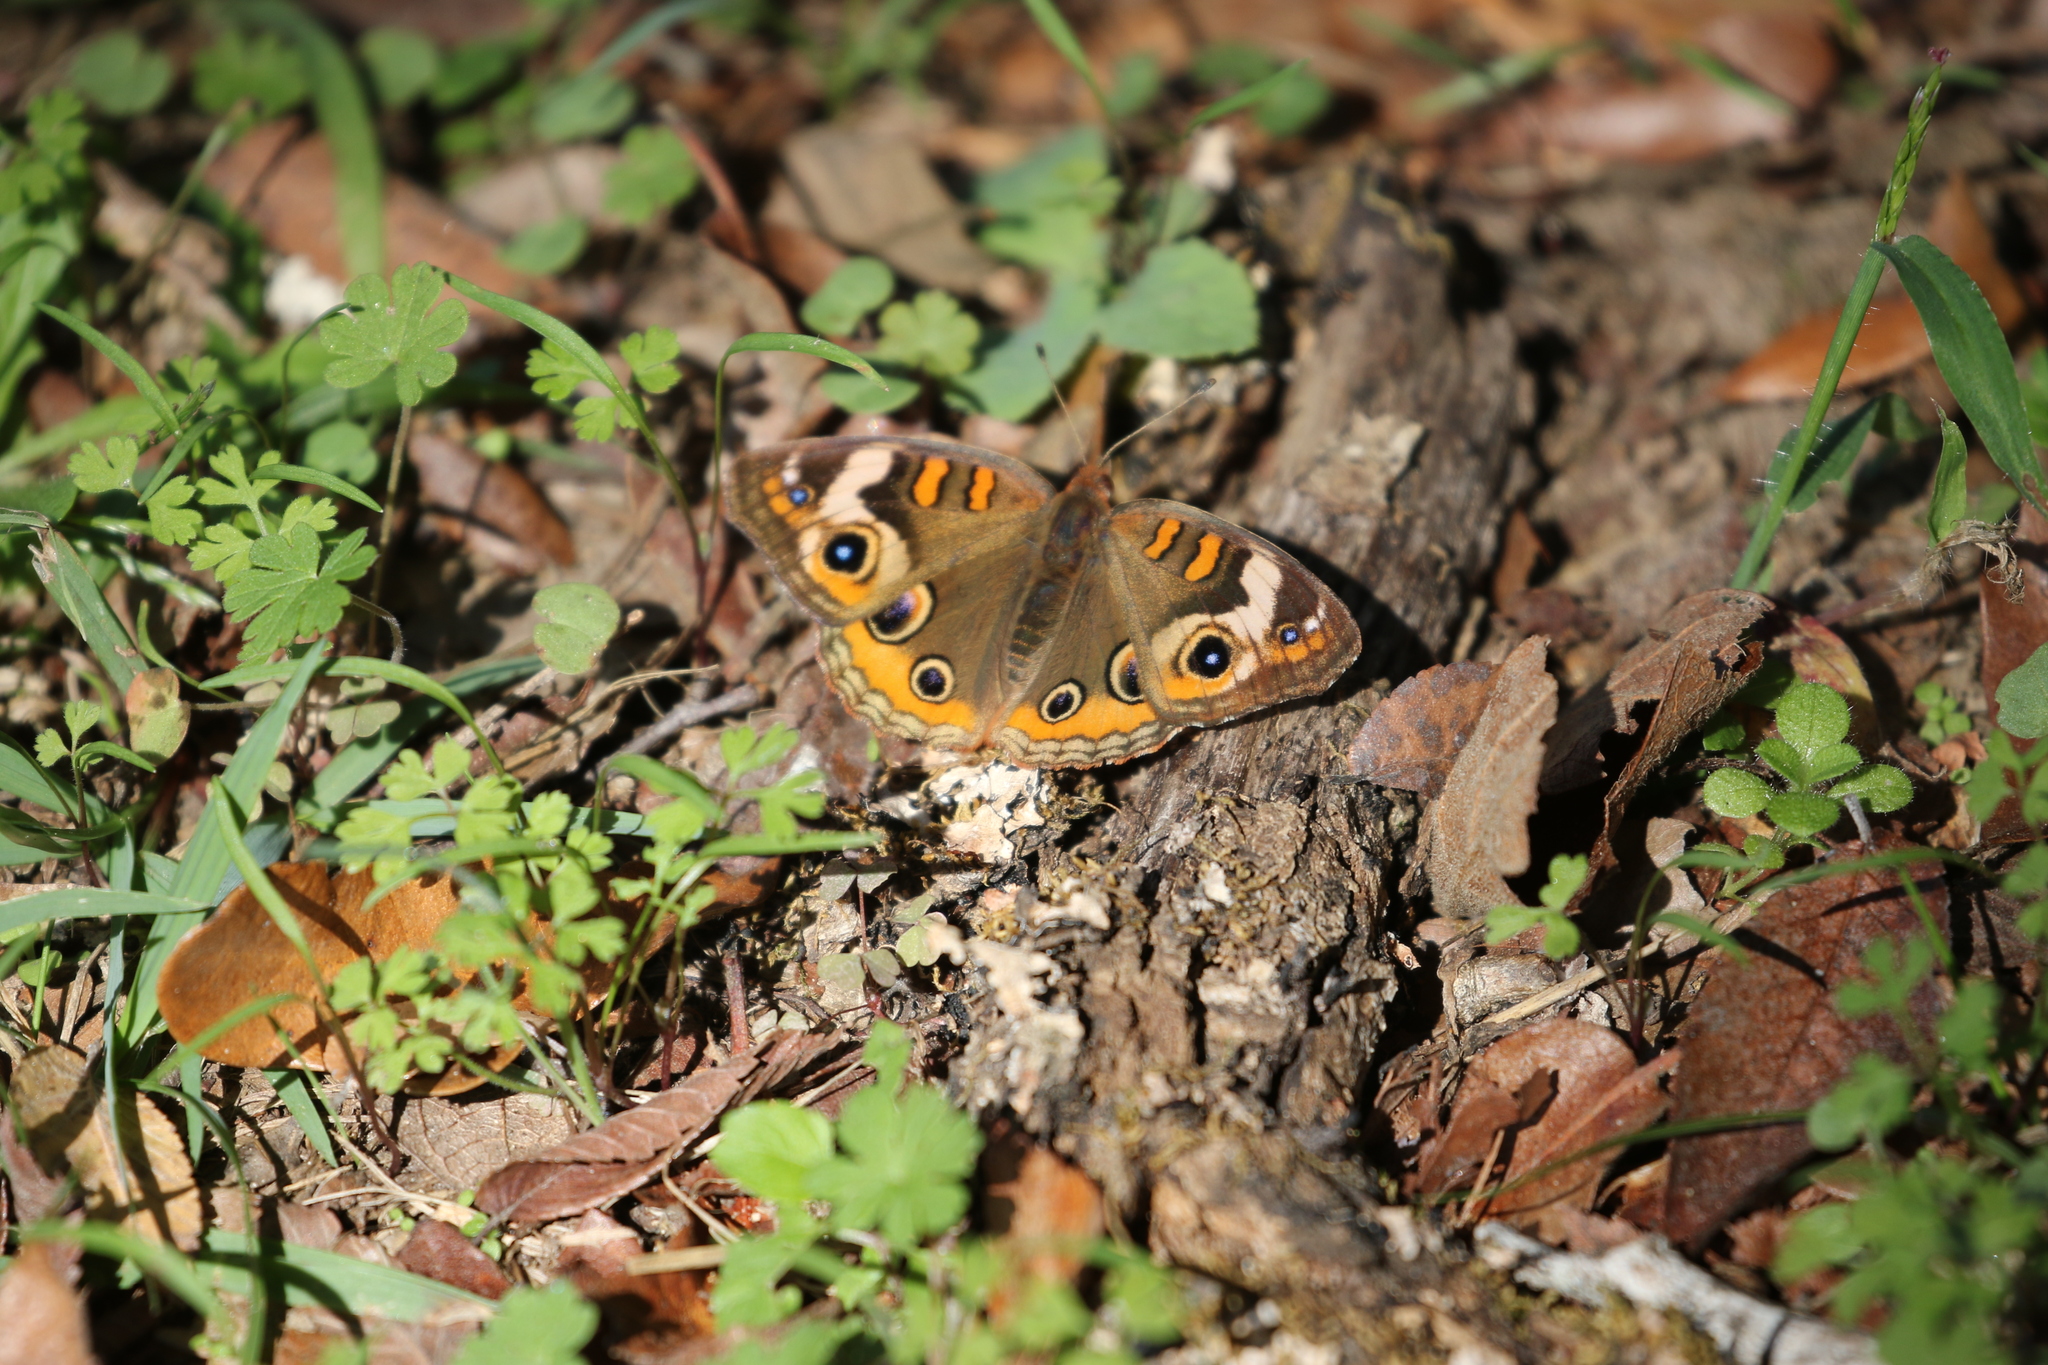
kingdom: Animalia
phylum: Arthropoda
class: Insecta
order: Lepidoptera
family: Nymphalidae
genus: Junonia
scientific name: Junonia coenia
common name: Common buckeye
